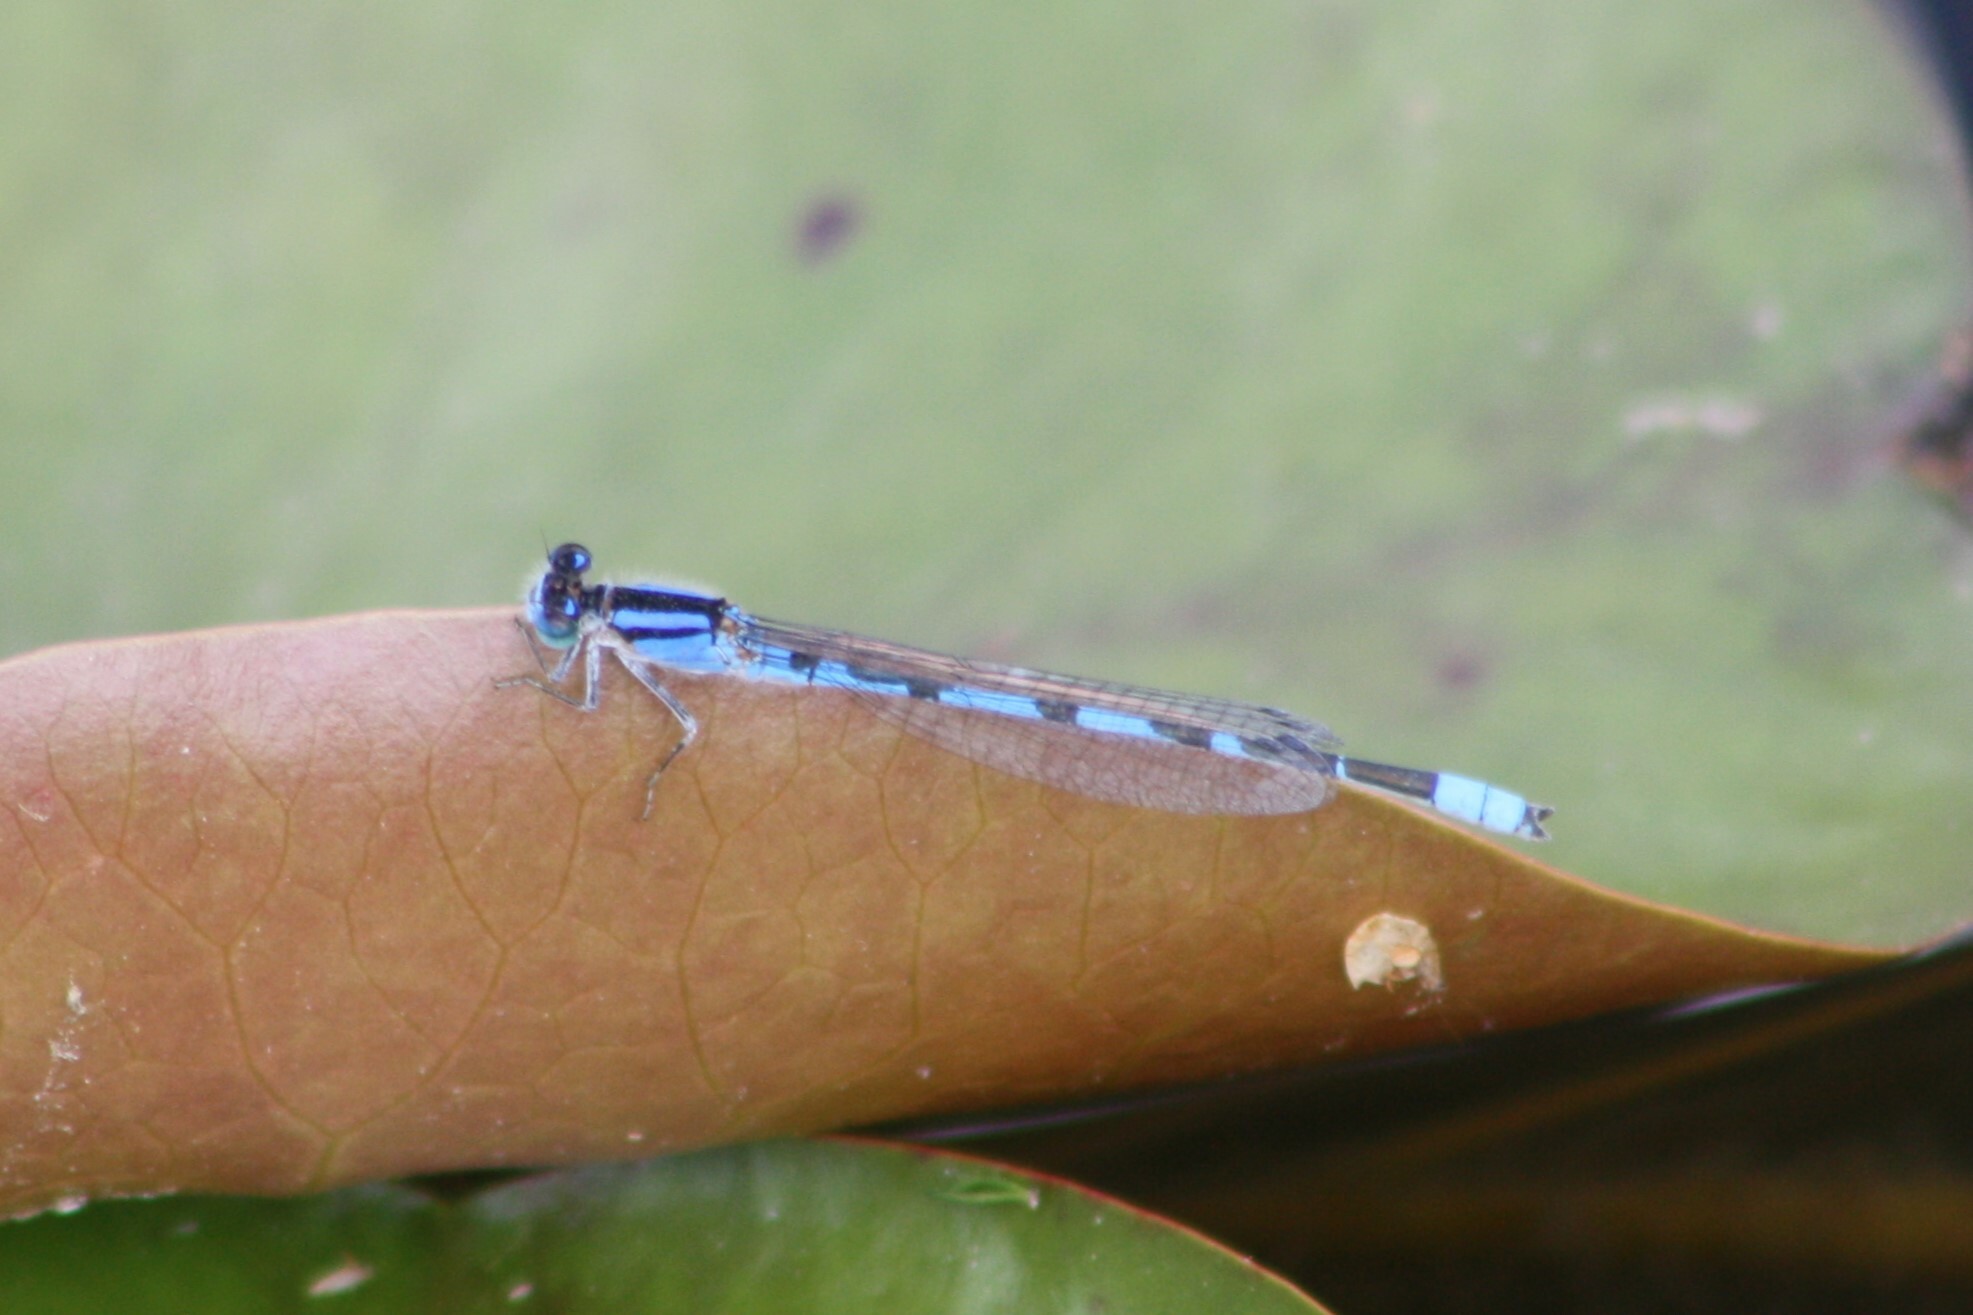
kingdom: Animalia
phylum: Arthropoda
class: Insecta
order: Odonata
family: Coenagrionidae
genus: Enallagma
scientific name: Enallagma civile
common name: Damselfly
